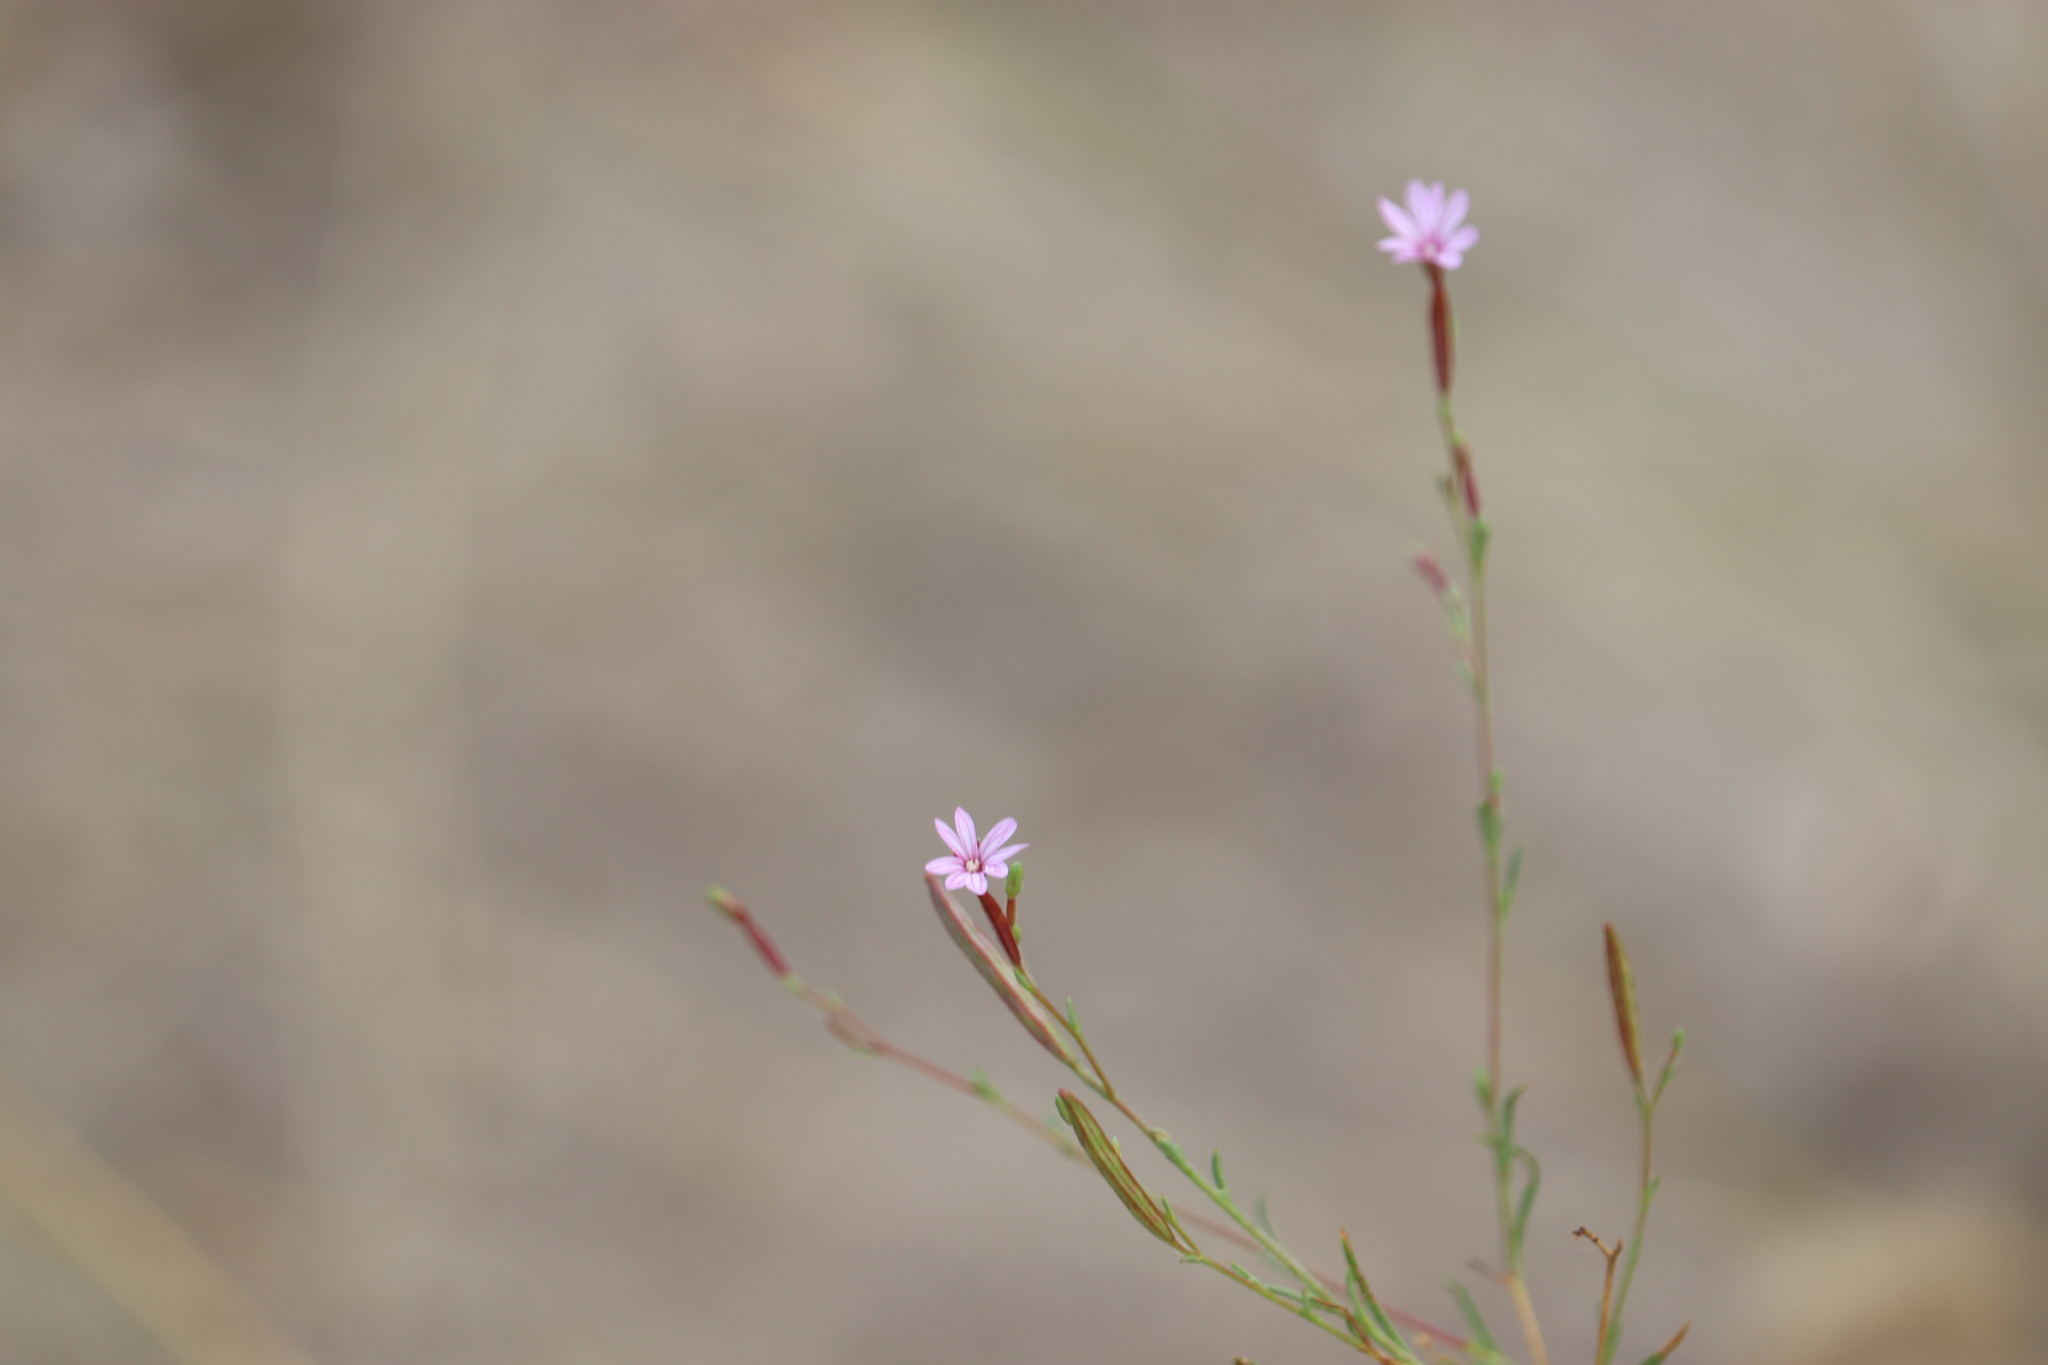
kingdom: Plantae
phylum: Tracheophyta
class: Magnoliopsida
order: Myrtales
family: Onagraceae
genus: Epilobium
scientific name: Epilobium brachycarpum
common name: Annual willowherb
